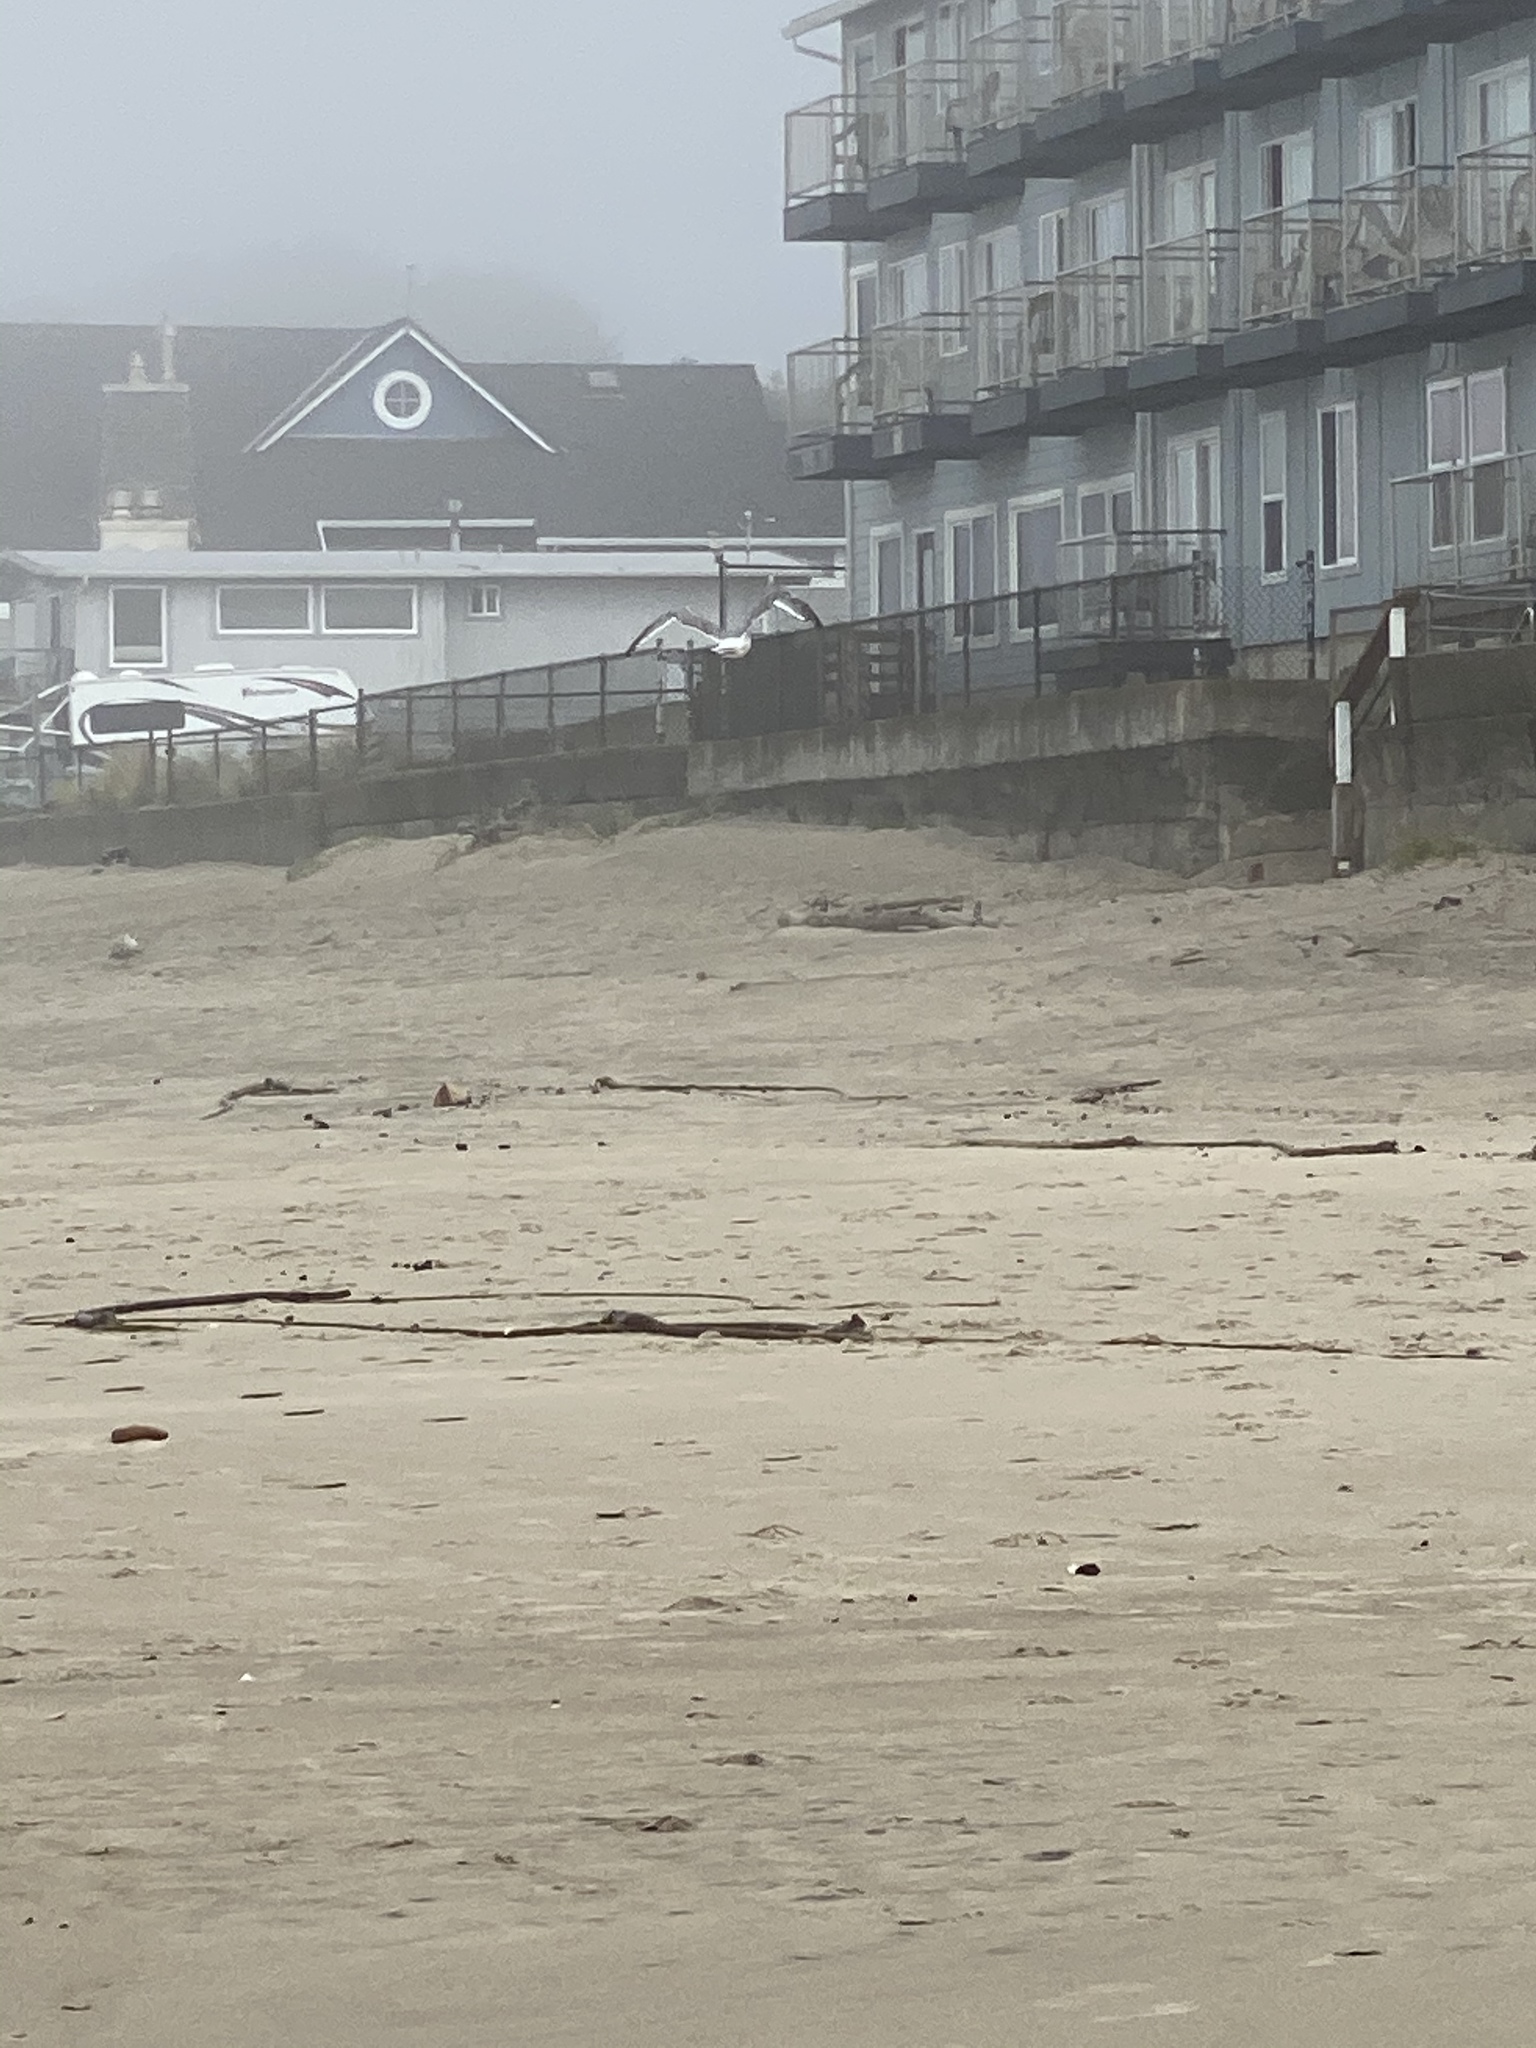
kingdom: Animalia
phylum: Chordata
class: Aves
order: Charadriiformes
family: Laridae
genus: Larus
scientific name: Larus occidentalis
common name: Western gull
